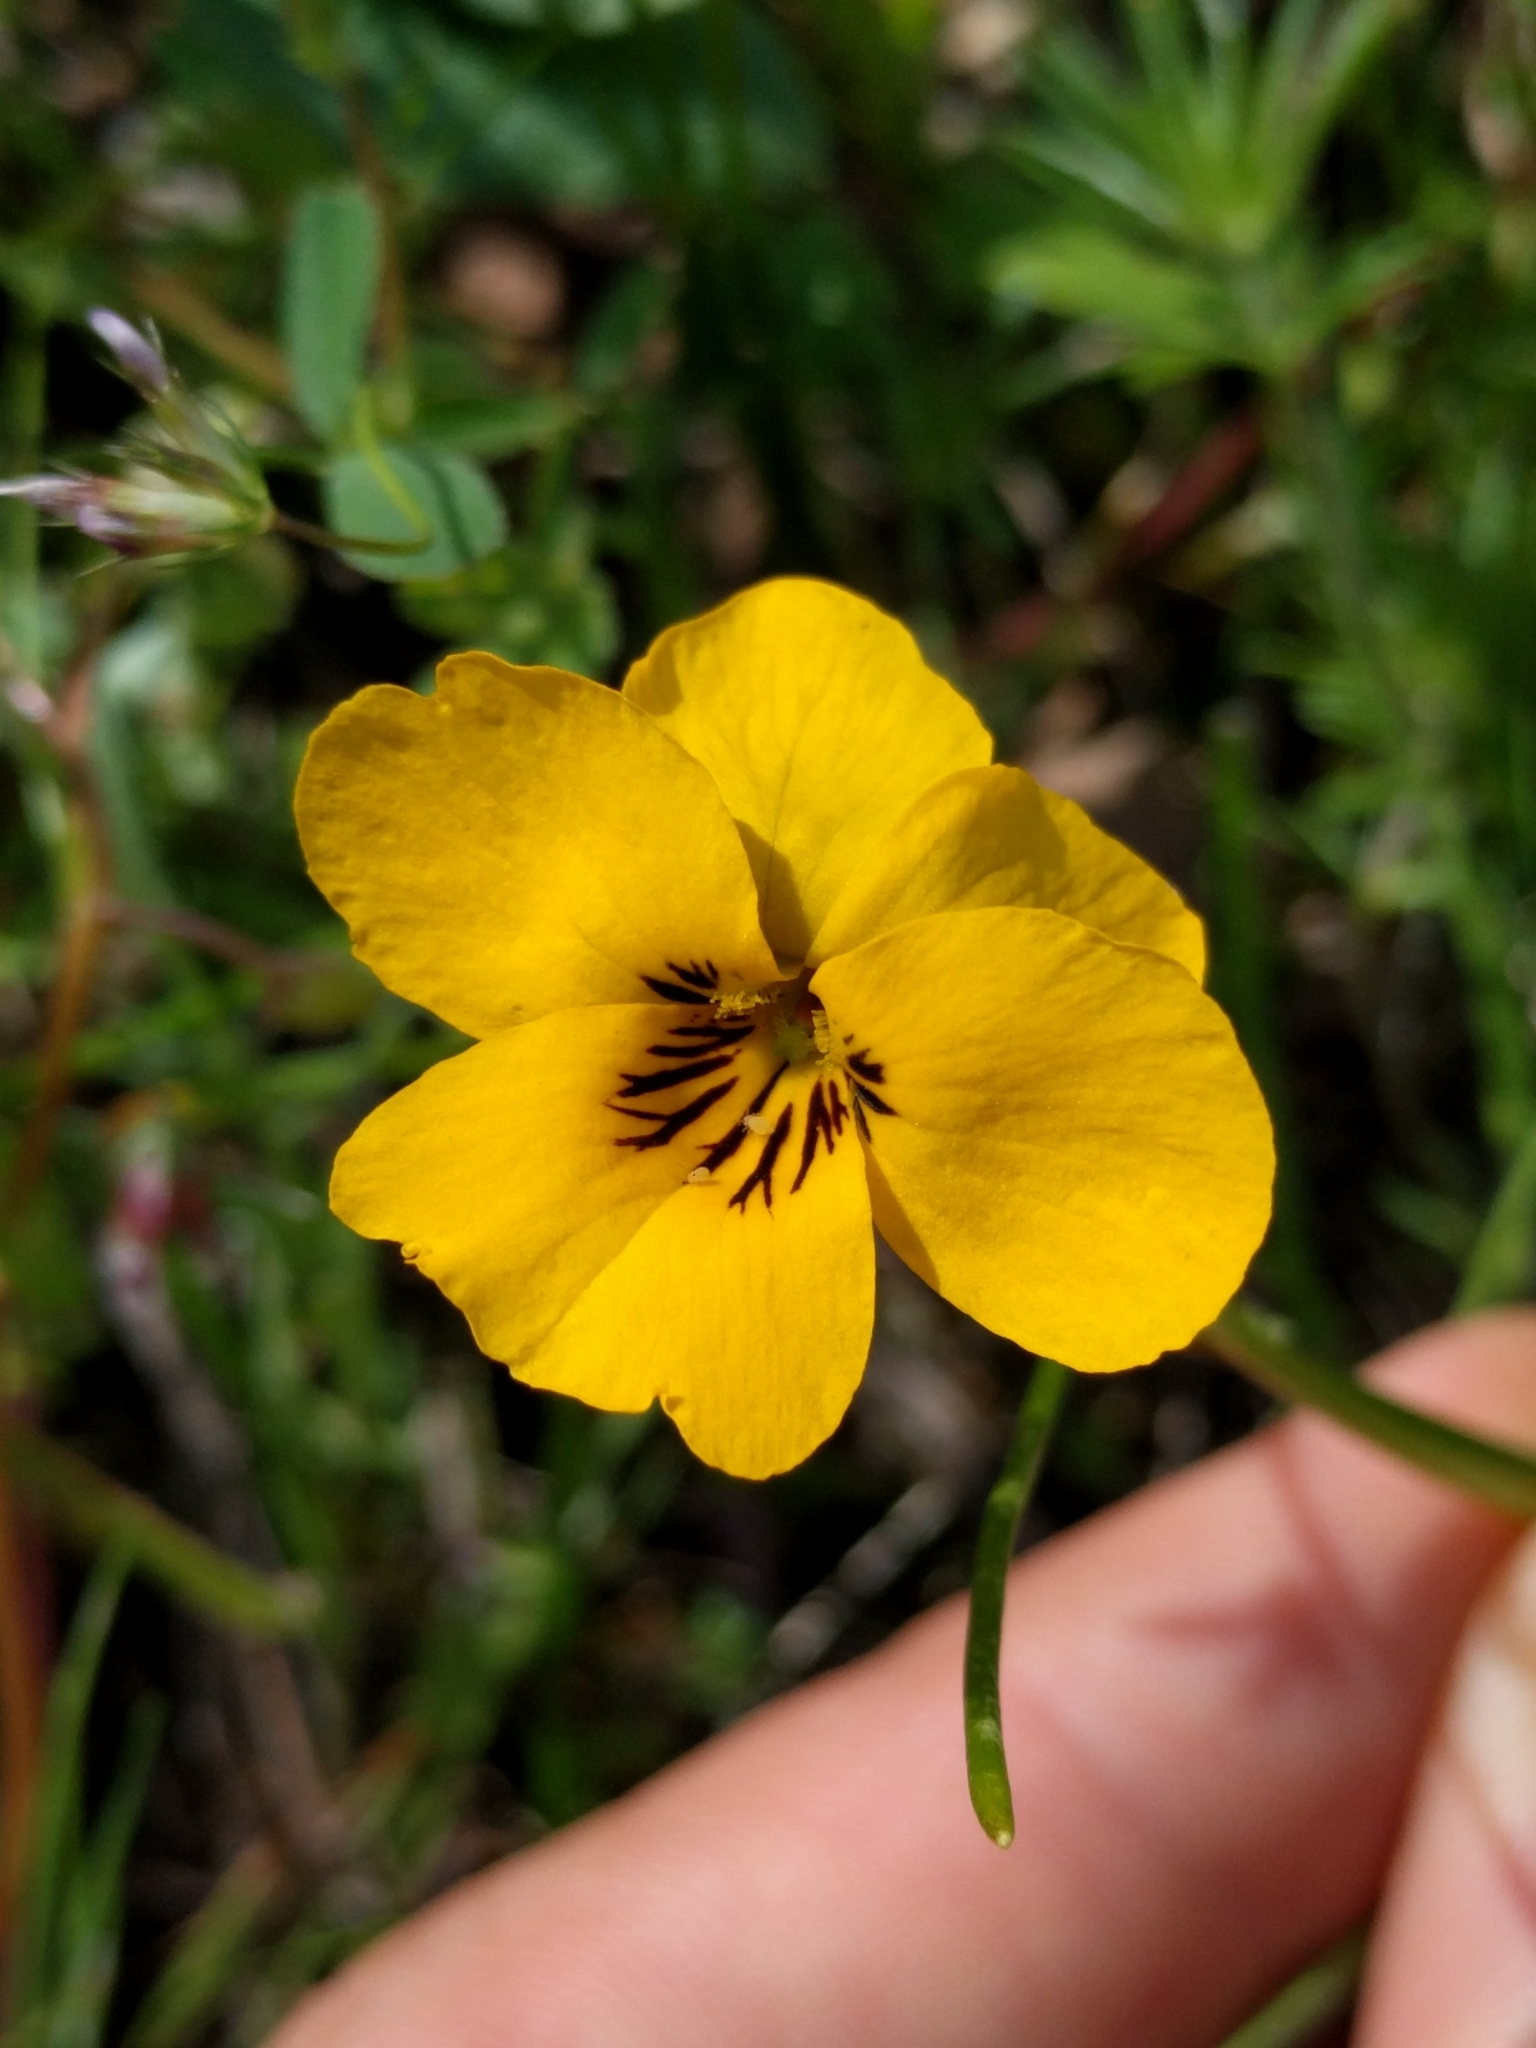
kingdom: Plantae
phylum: Tracheophyta
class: Magnoliopsida
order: Malpighiales
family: Violaceae
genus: Viola
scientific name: Viola pedunculata
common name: California golden violet
